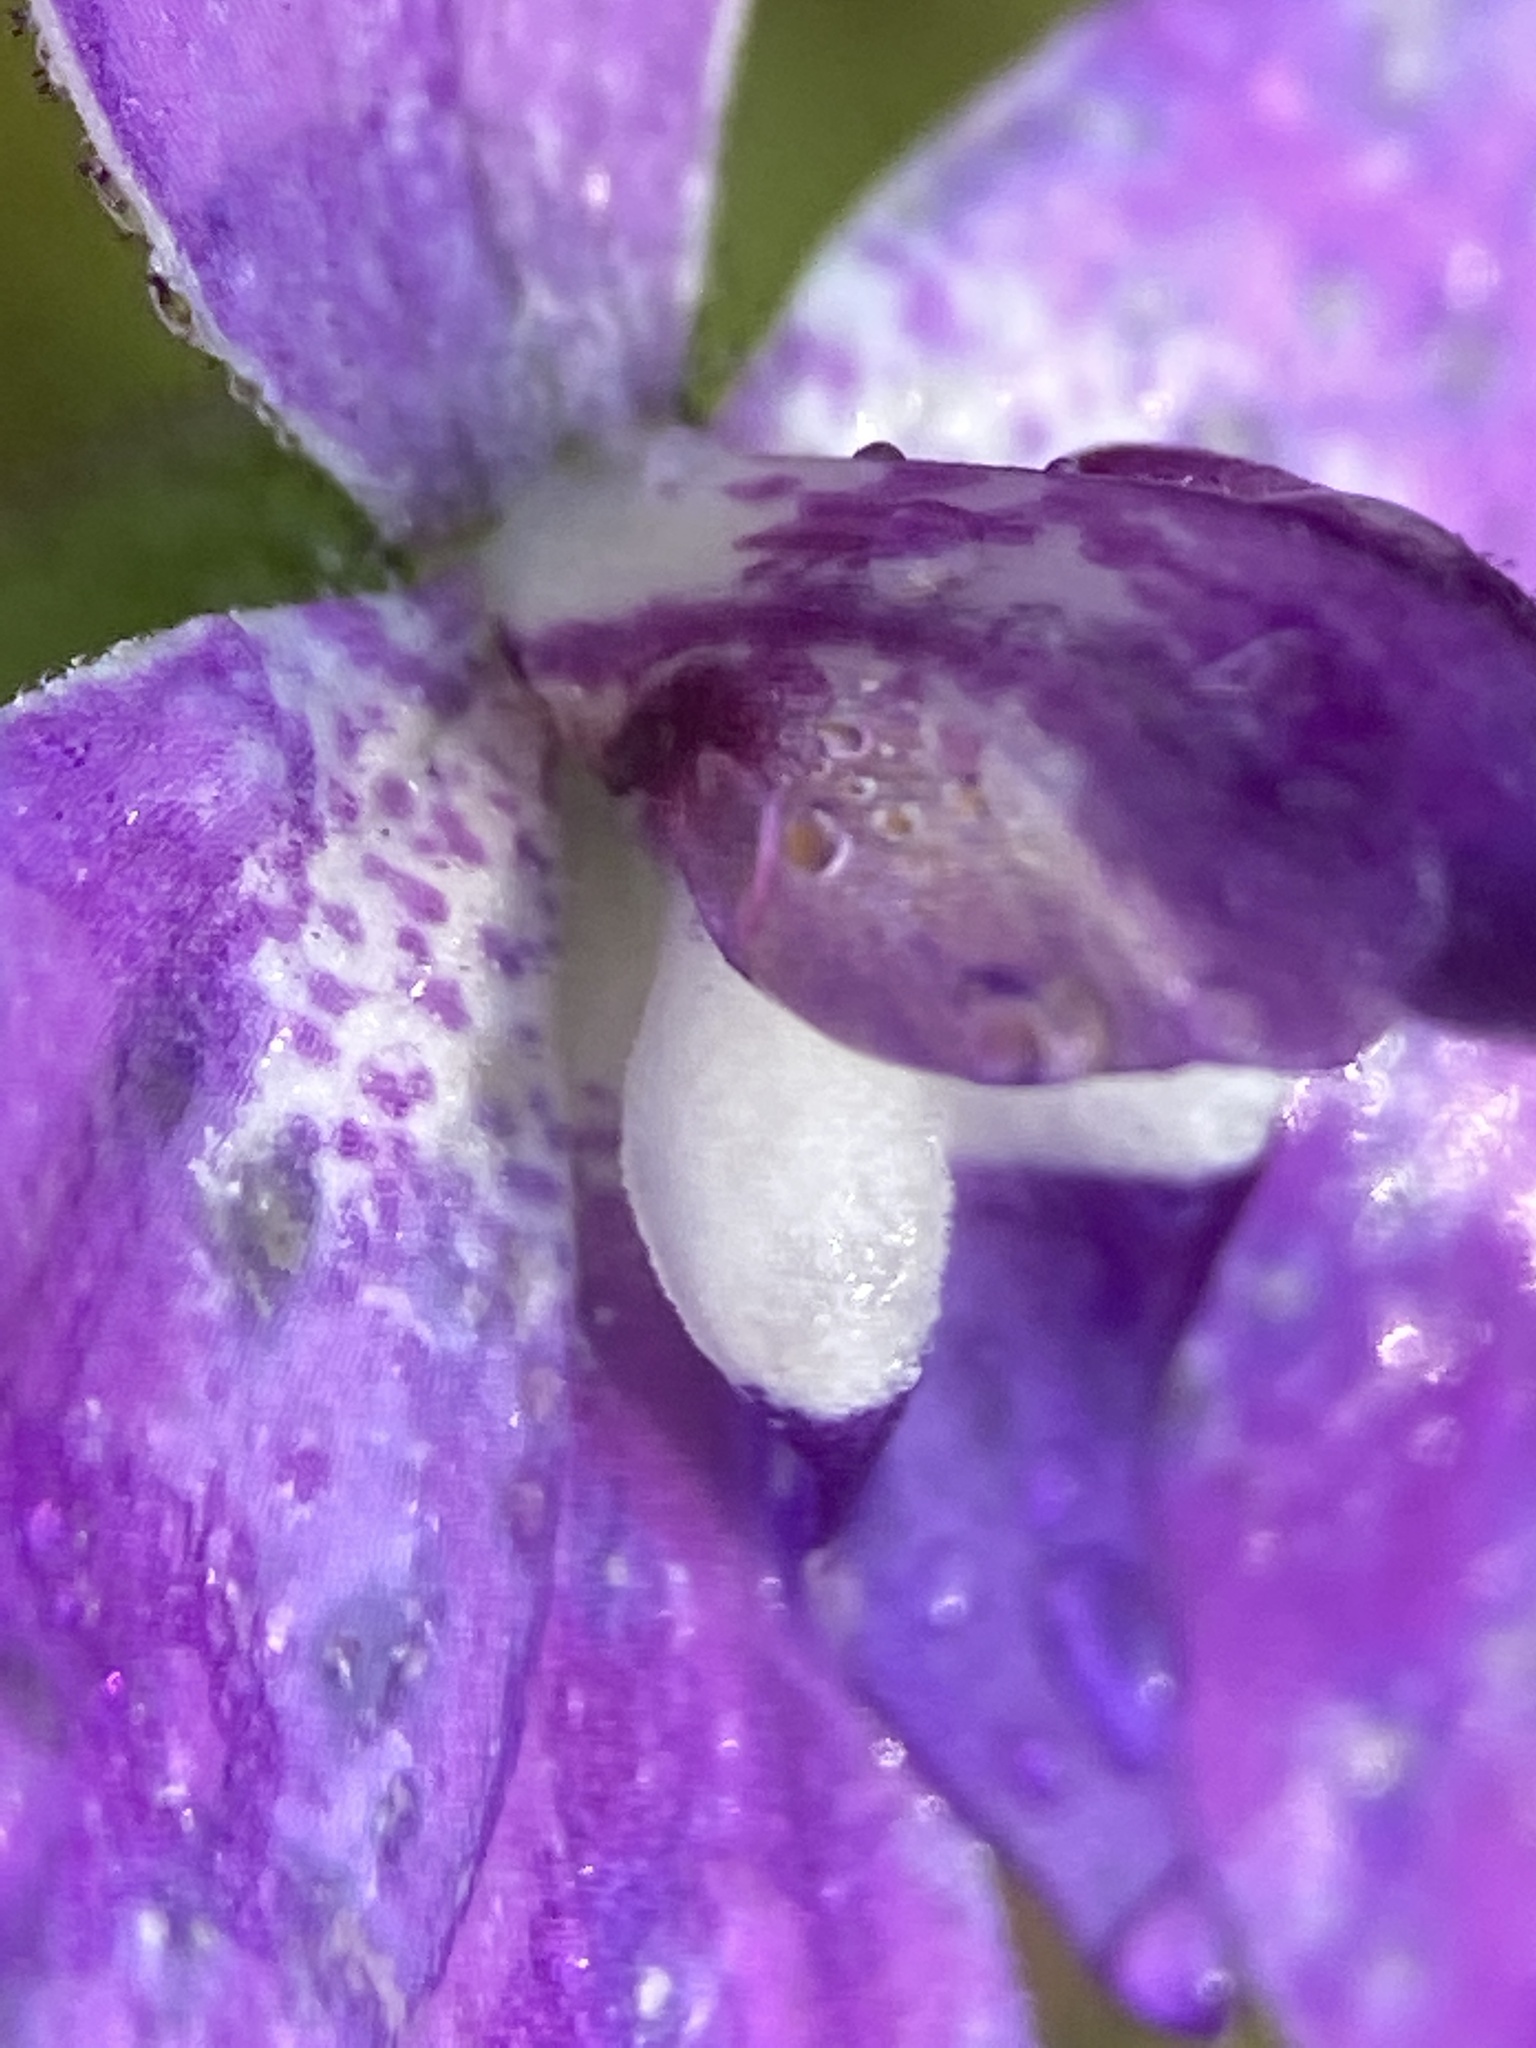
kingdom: Plantae
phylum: Tracheophyta
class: Liliopsida
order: Asparagales
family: Orchidaceae
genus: Caladenia
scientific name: Caladenia major
